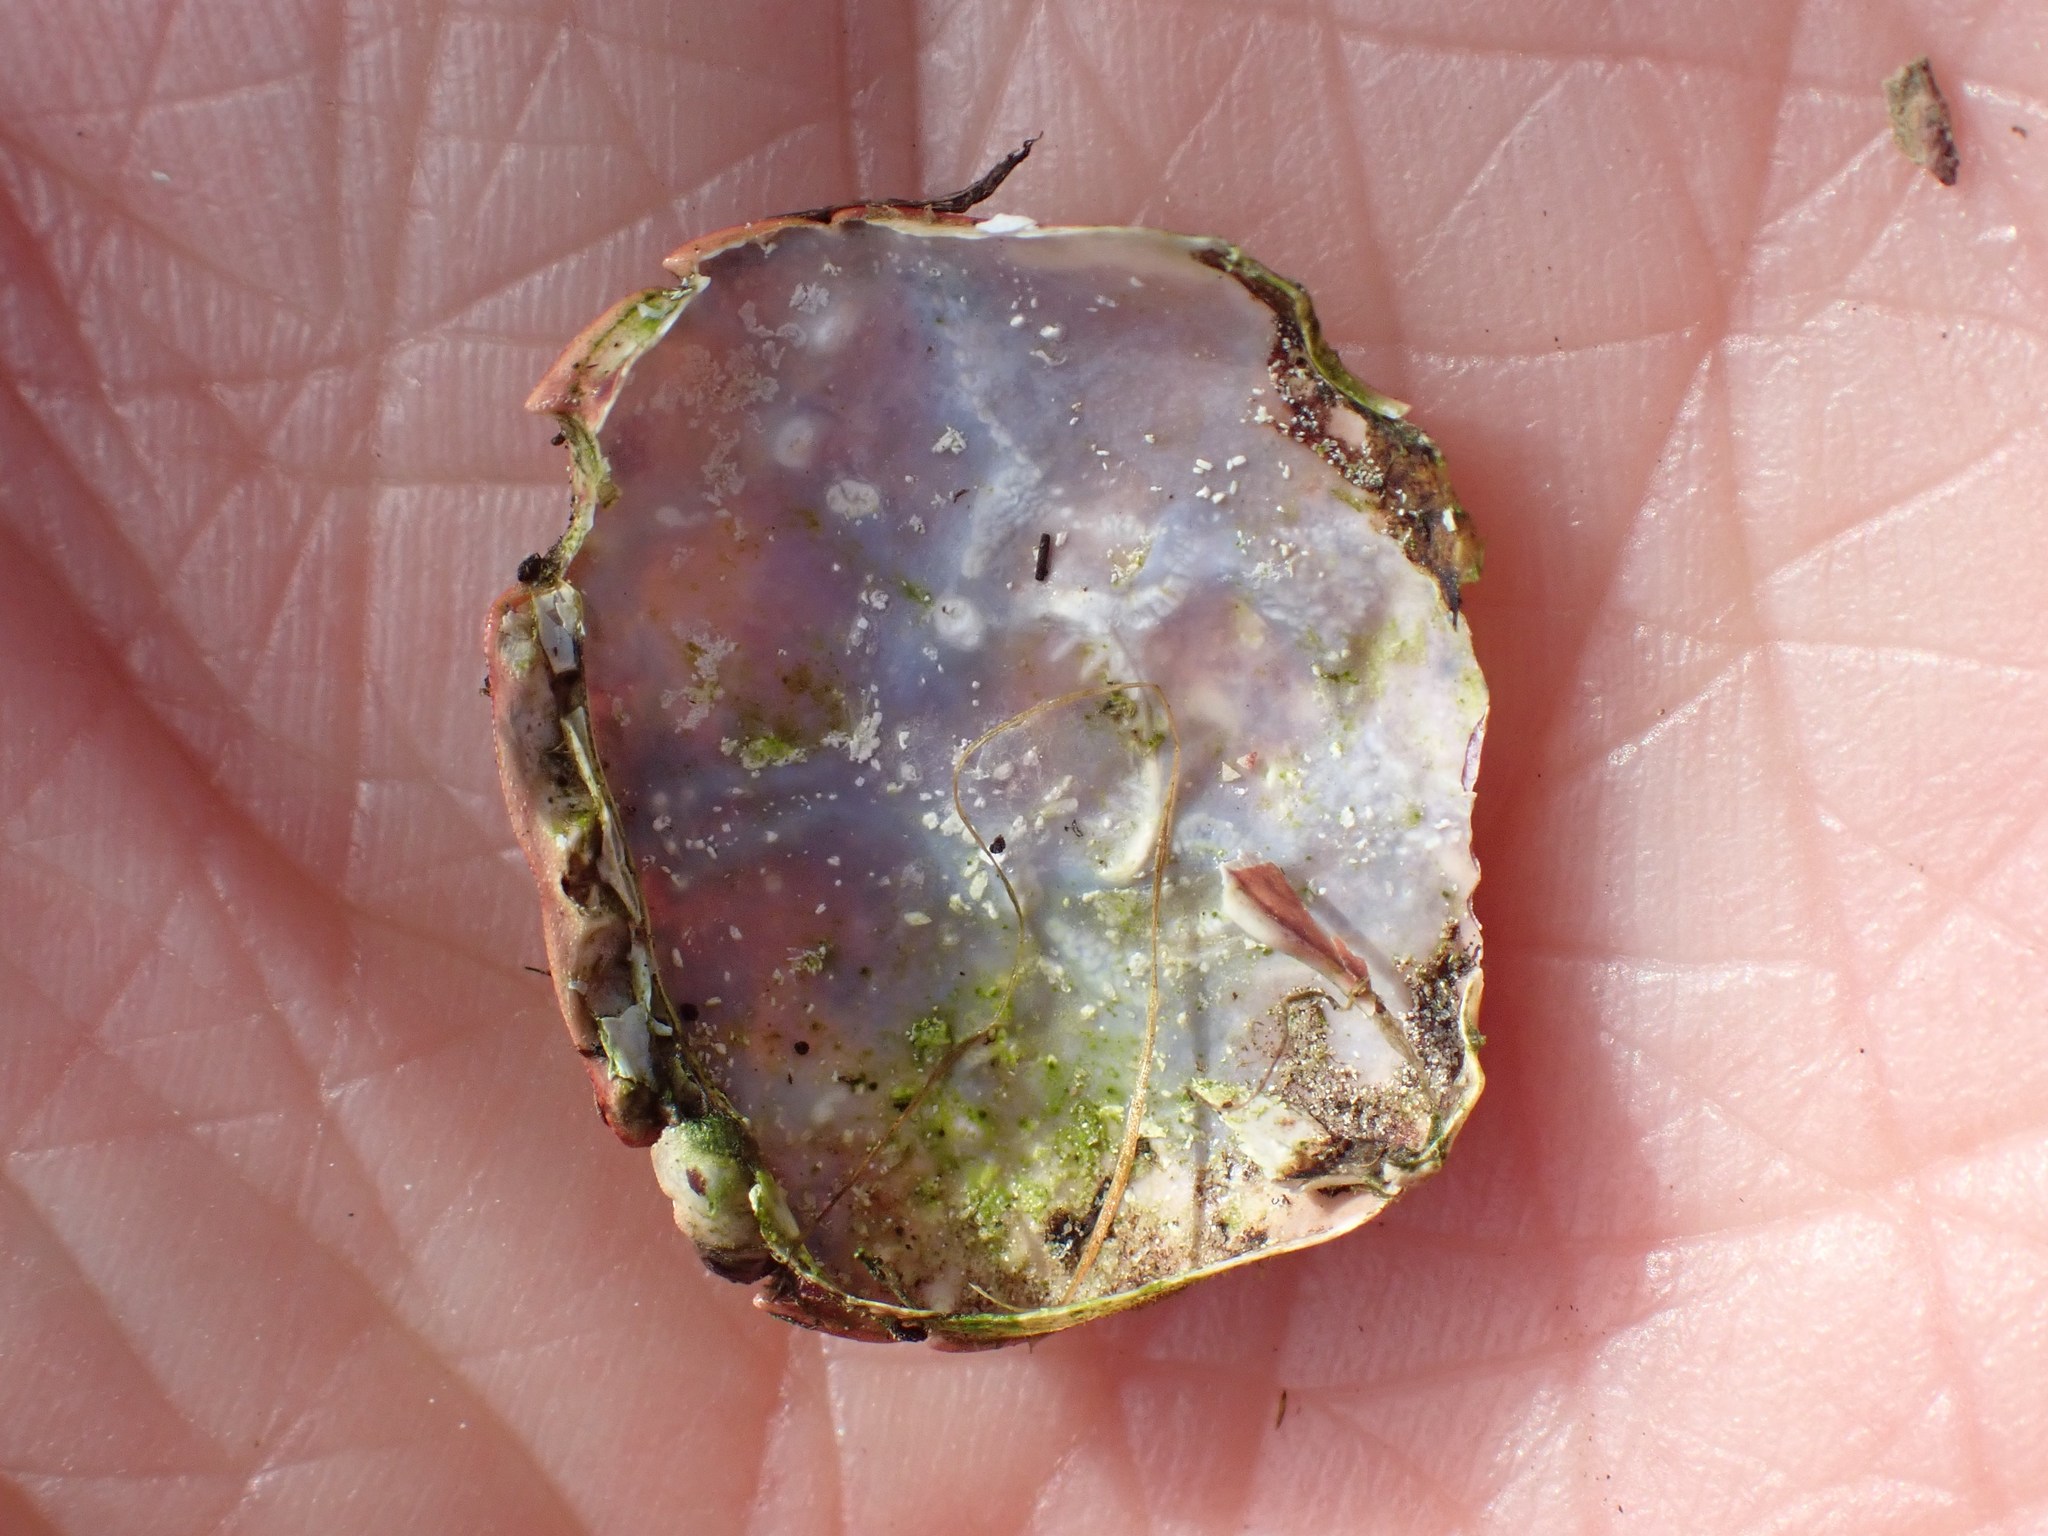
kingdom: Animalia
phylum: Arthropoda
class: Malacostraca
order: Decapoda
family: Varunidae
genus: Hemigrapsus
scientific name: Hemigrapsus nudus
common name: Purple shore crab
